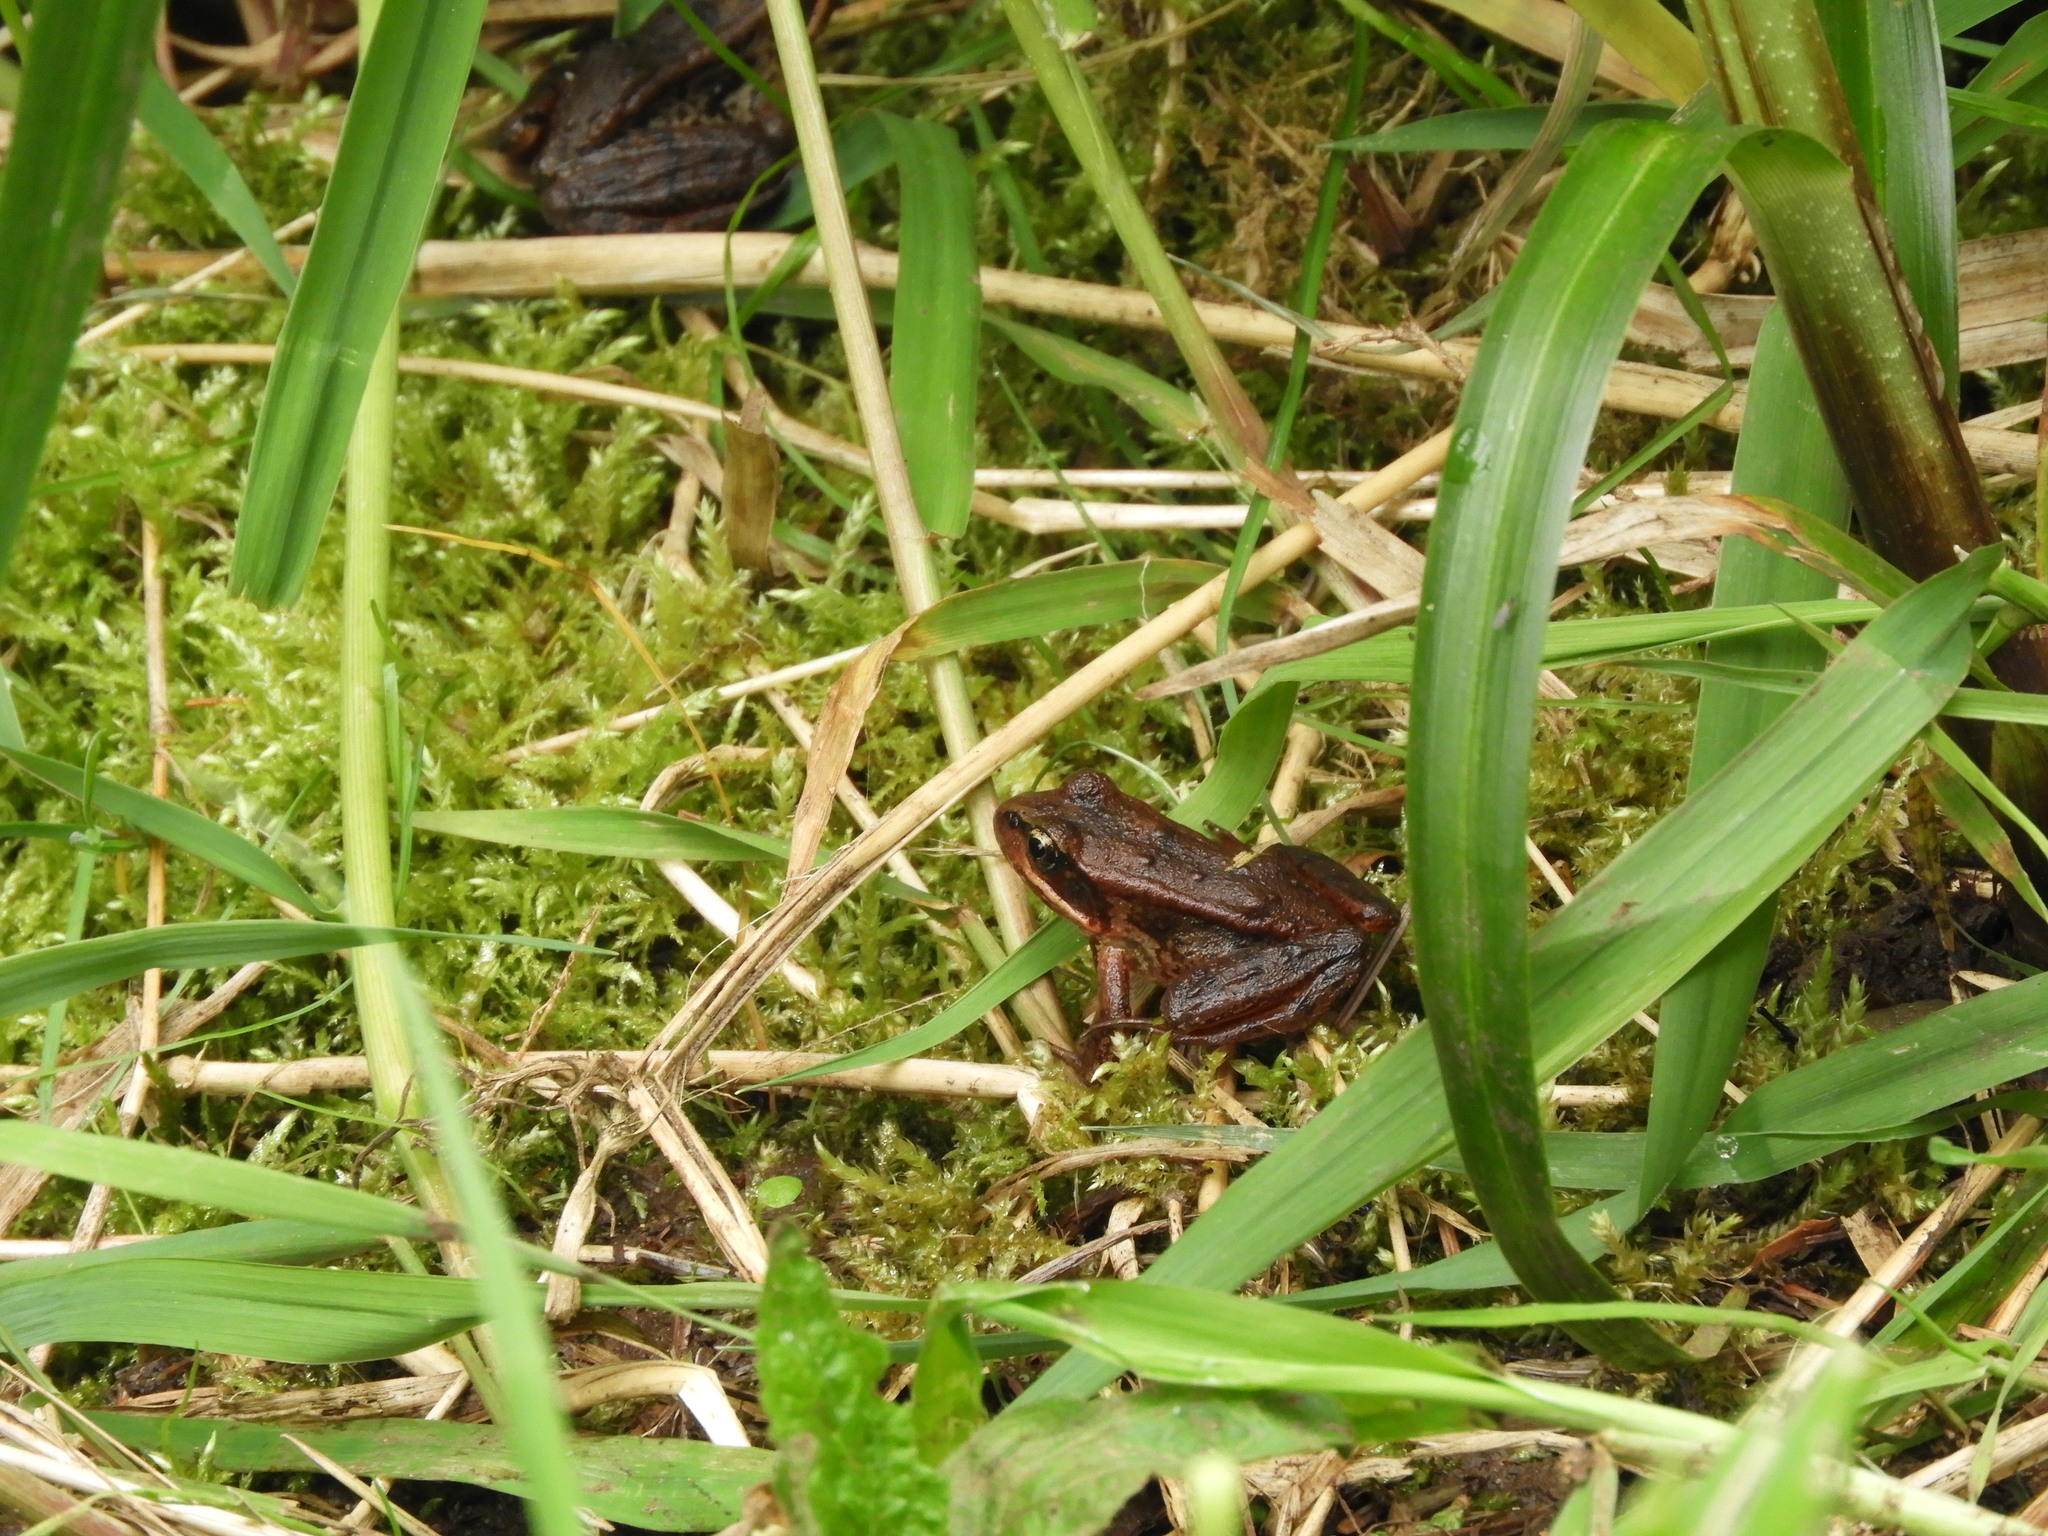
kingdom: Animalia
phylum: Chordata
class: Amphibia
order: Anura
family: Ranidae
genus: Rana
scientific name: Rana aurora
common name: Red-legged frog
